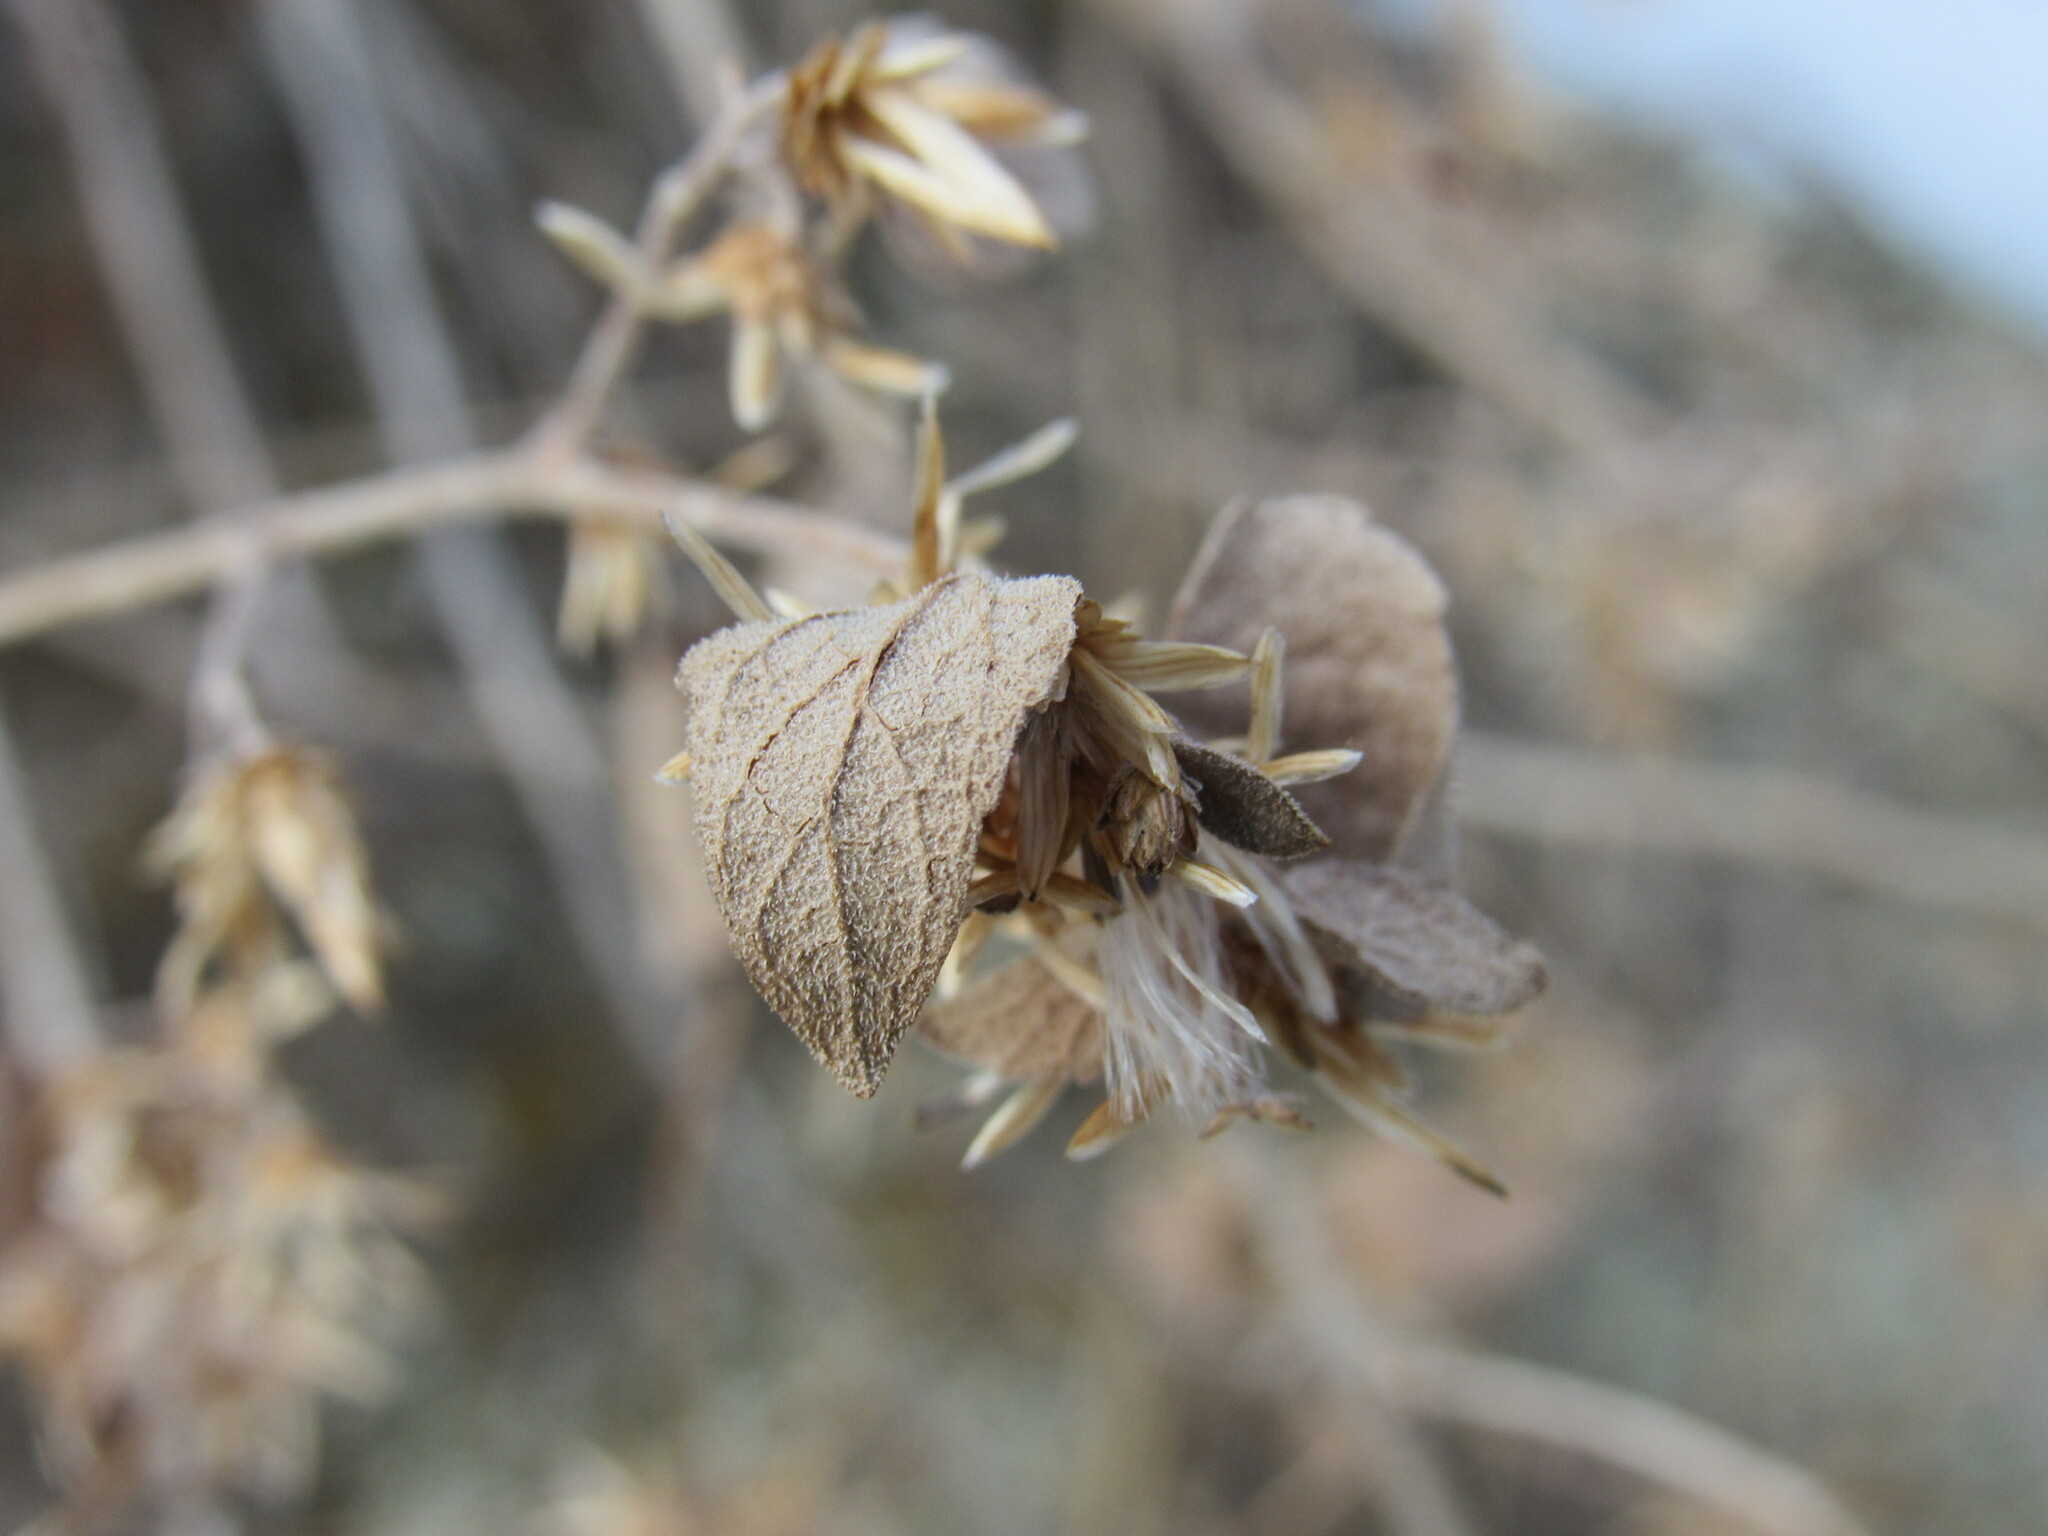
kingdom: Plantae
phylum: Tracheophyta
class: Magnoliopsida
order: Asterales
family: Asteraceae
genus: Brickellia
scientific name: Brickellia californica
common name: California brickellbush
